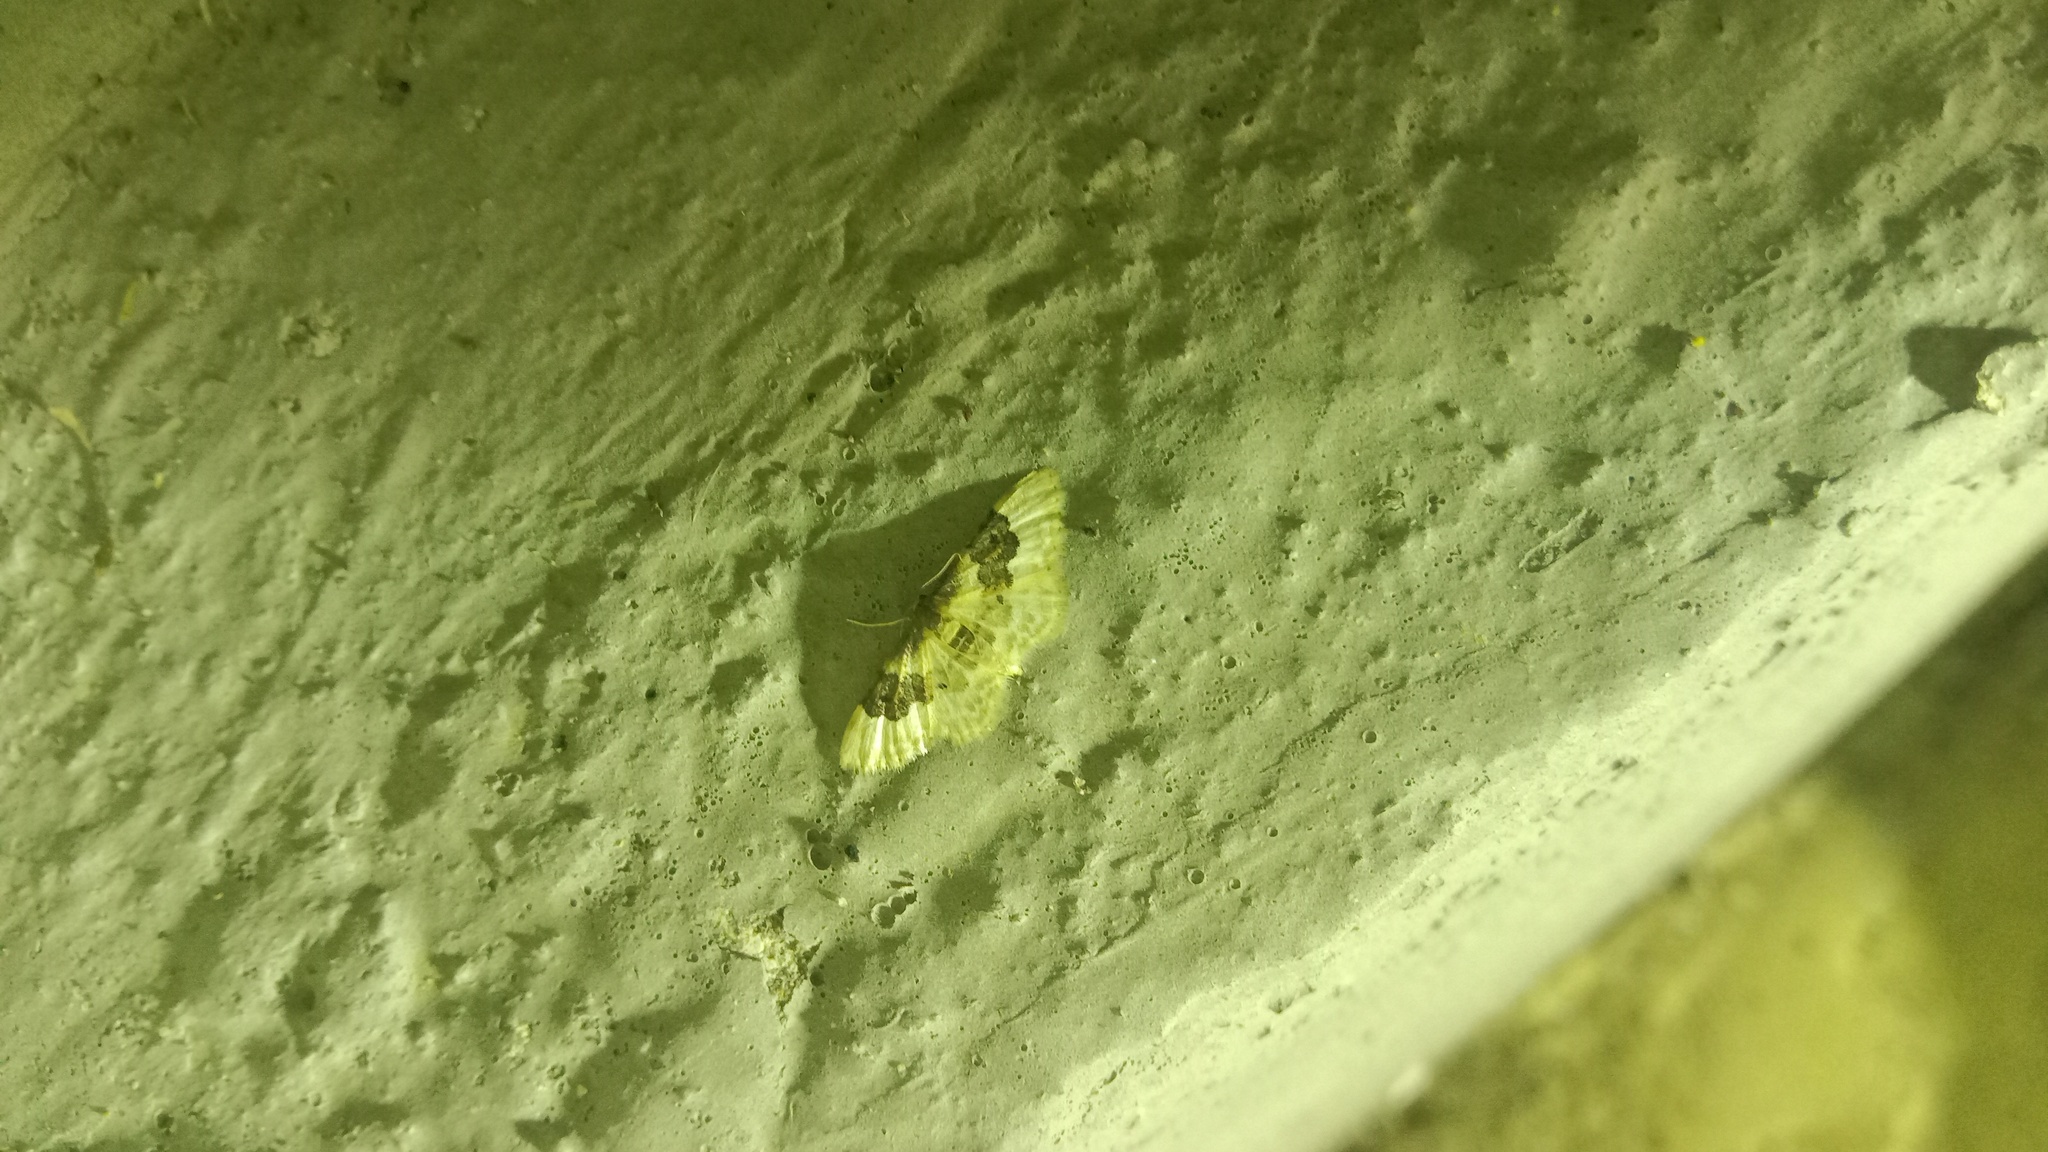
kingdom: Animalia
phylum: Arthropoda
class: Insecta
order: Lepidoptera
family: Geometridae
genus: Idaea
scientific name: Idaea rusticata
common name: Least carpet
